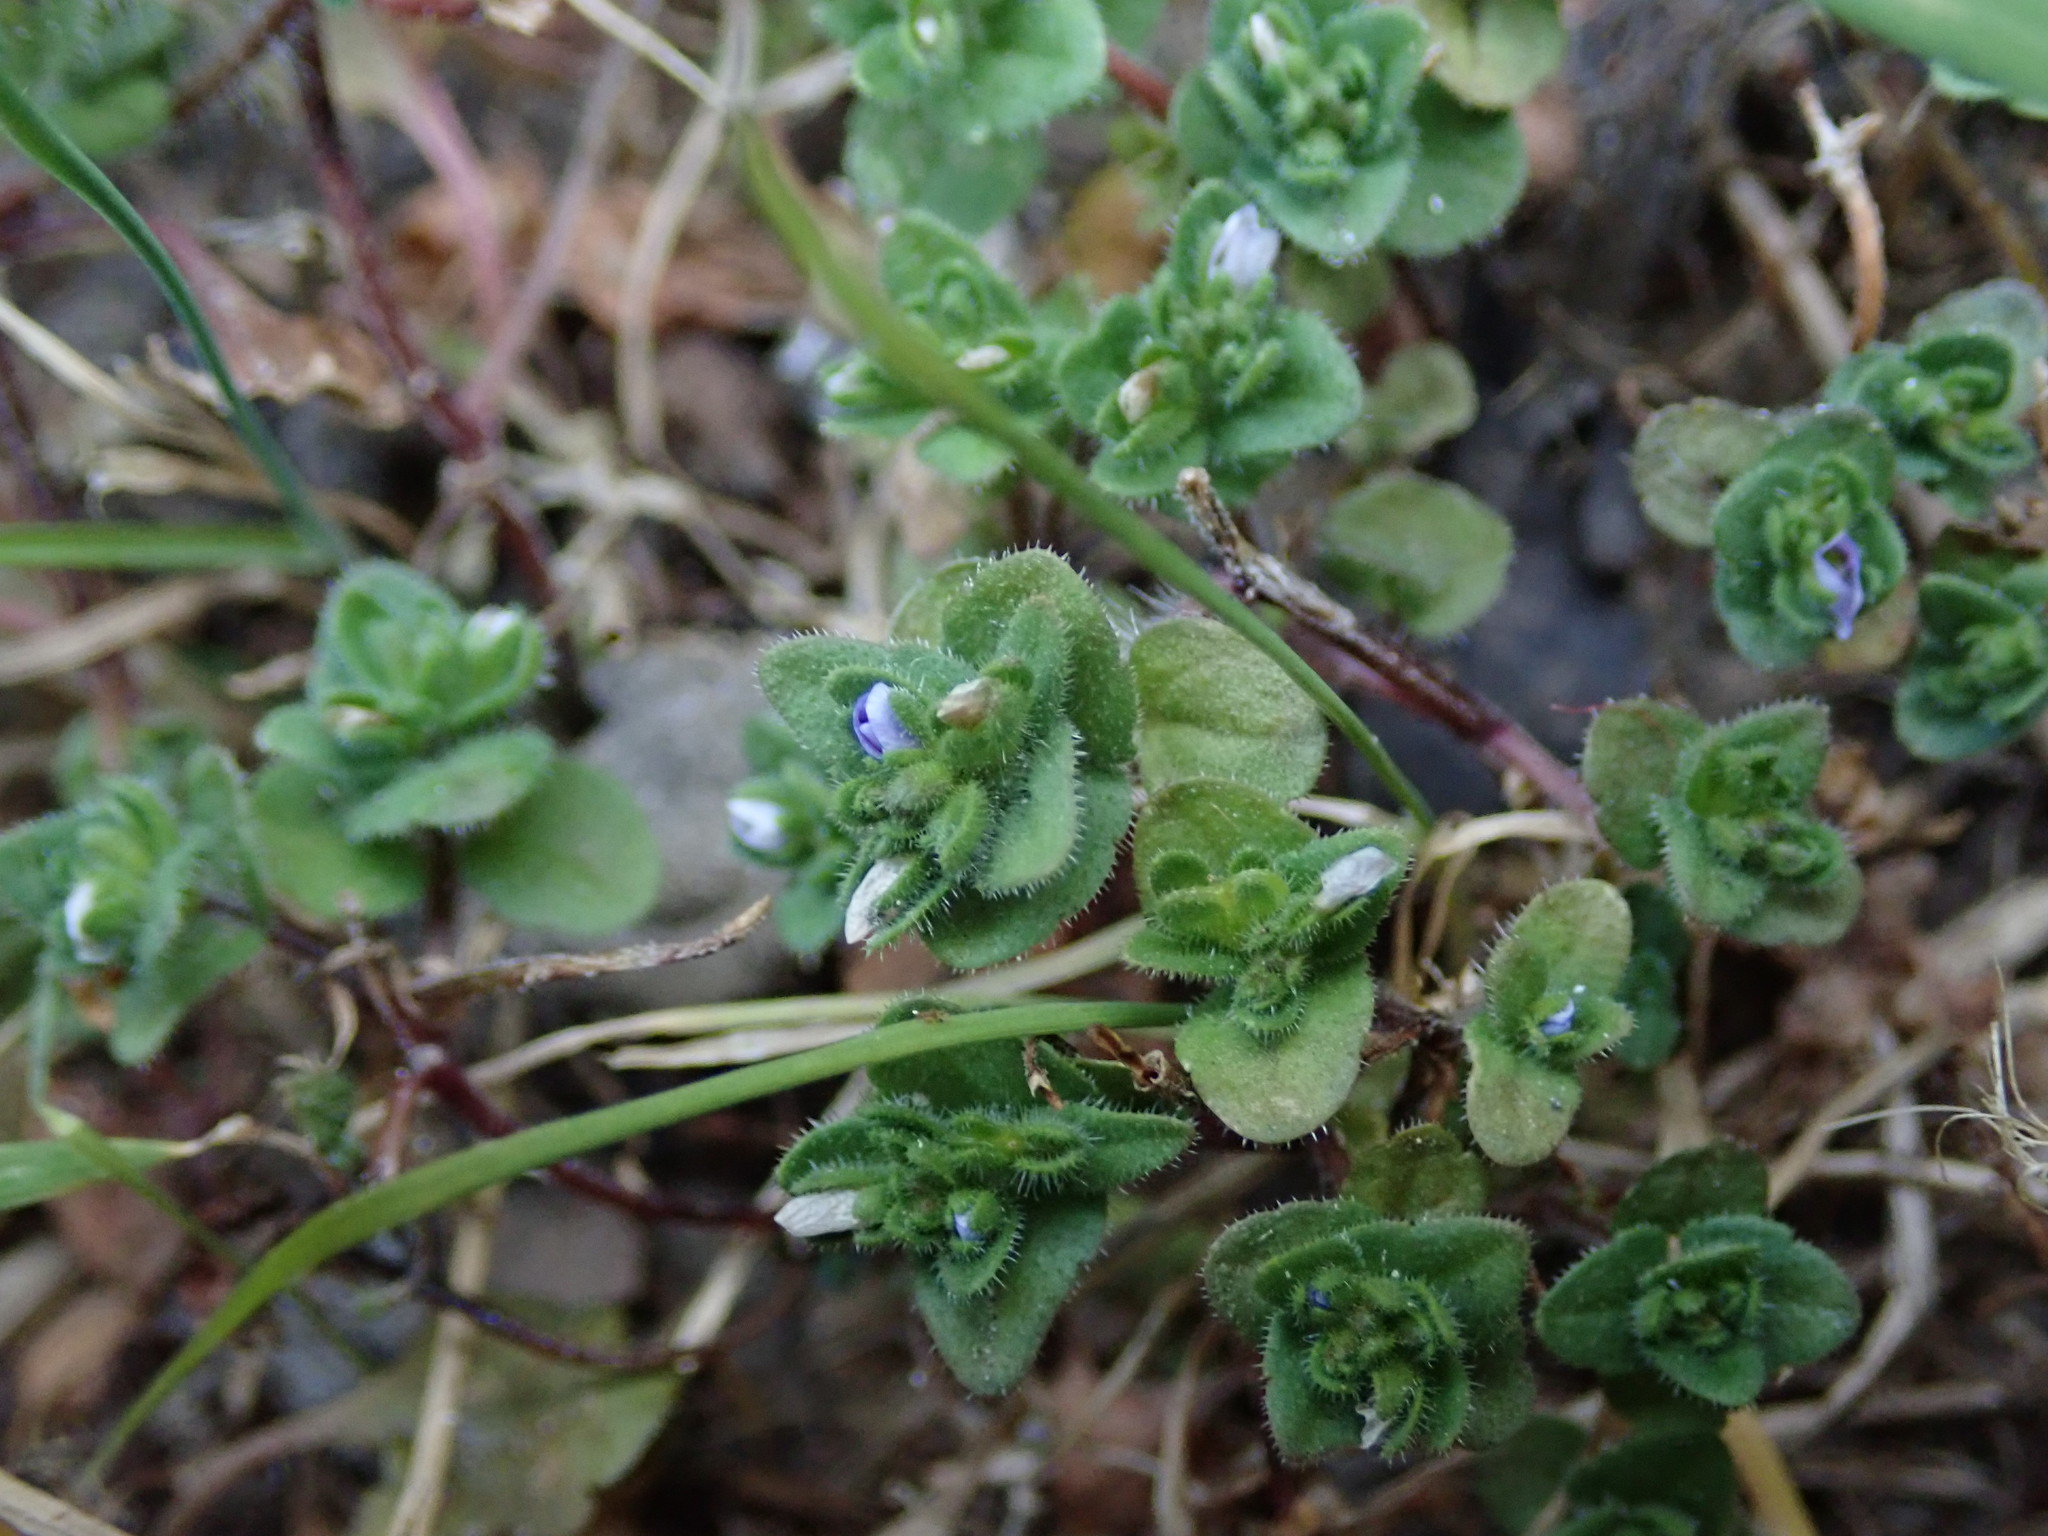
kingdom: Plantae
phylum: Tracheophyta
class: Magnoliopsida
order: Lamiales
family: Plantaginaceae
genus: Veronica
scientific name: Veronica arvensis
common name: Corn speedwell
